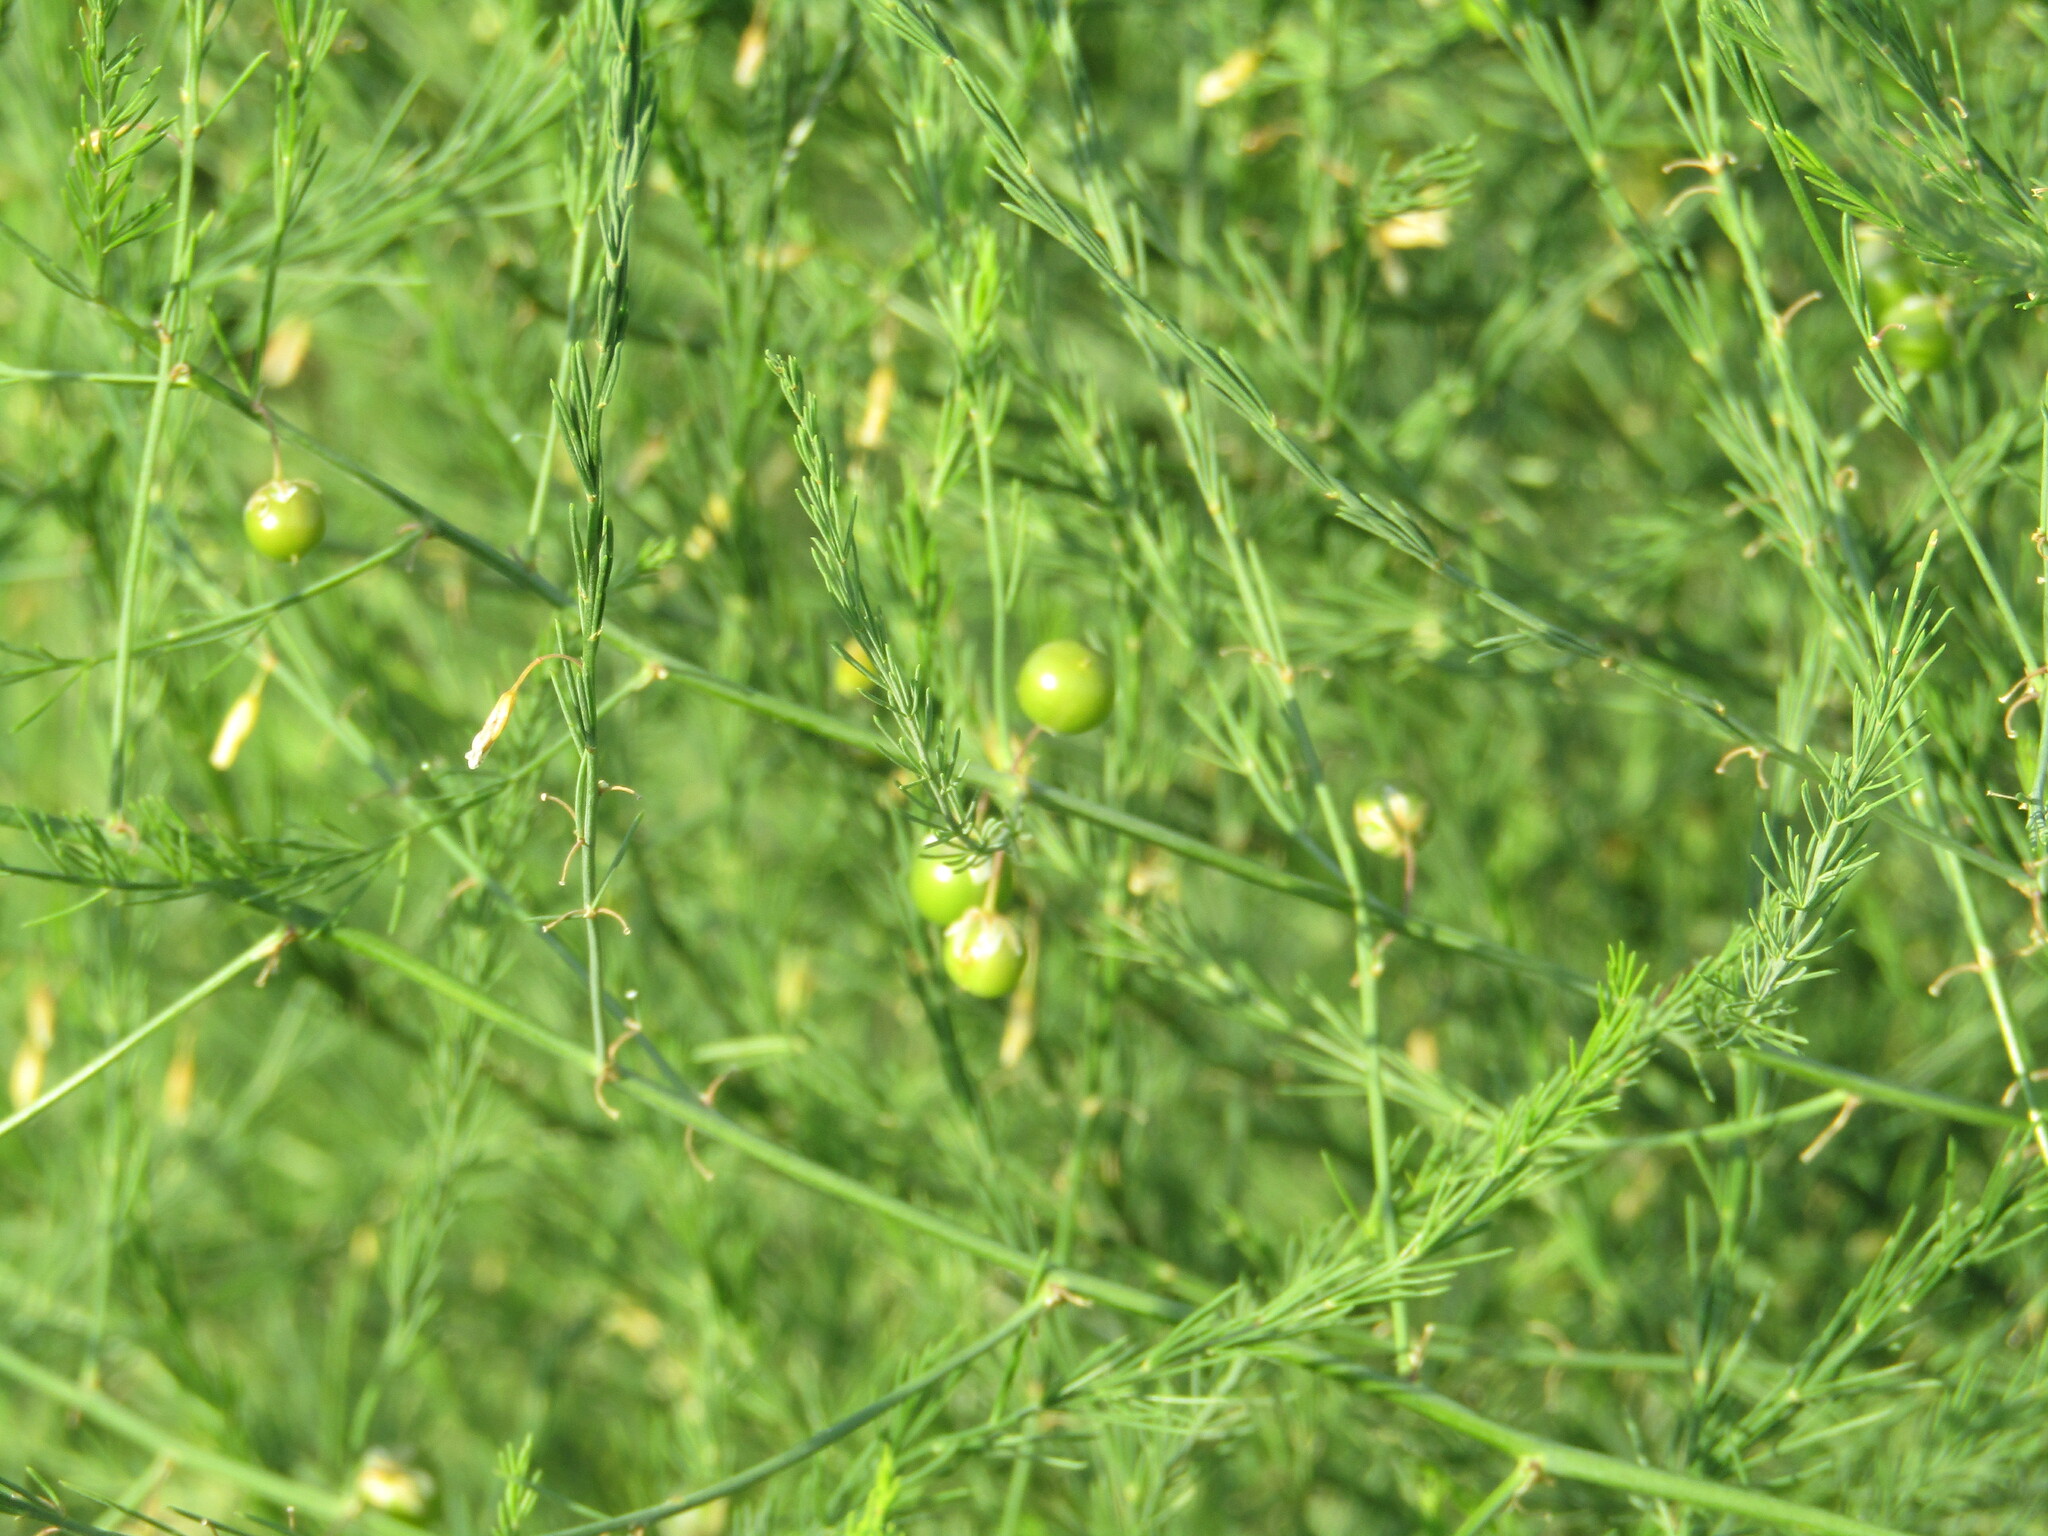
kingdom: Plantae
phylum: Tracheophyta
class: Liliopsida
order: Asparagales
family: Asparagaceae
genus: Asparagus
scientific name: Asparagus officinalis
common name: Garden asparagus
